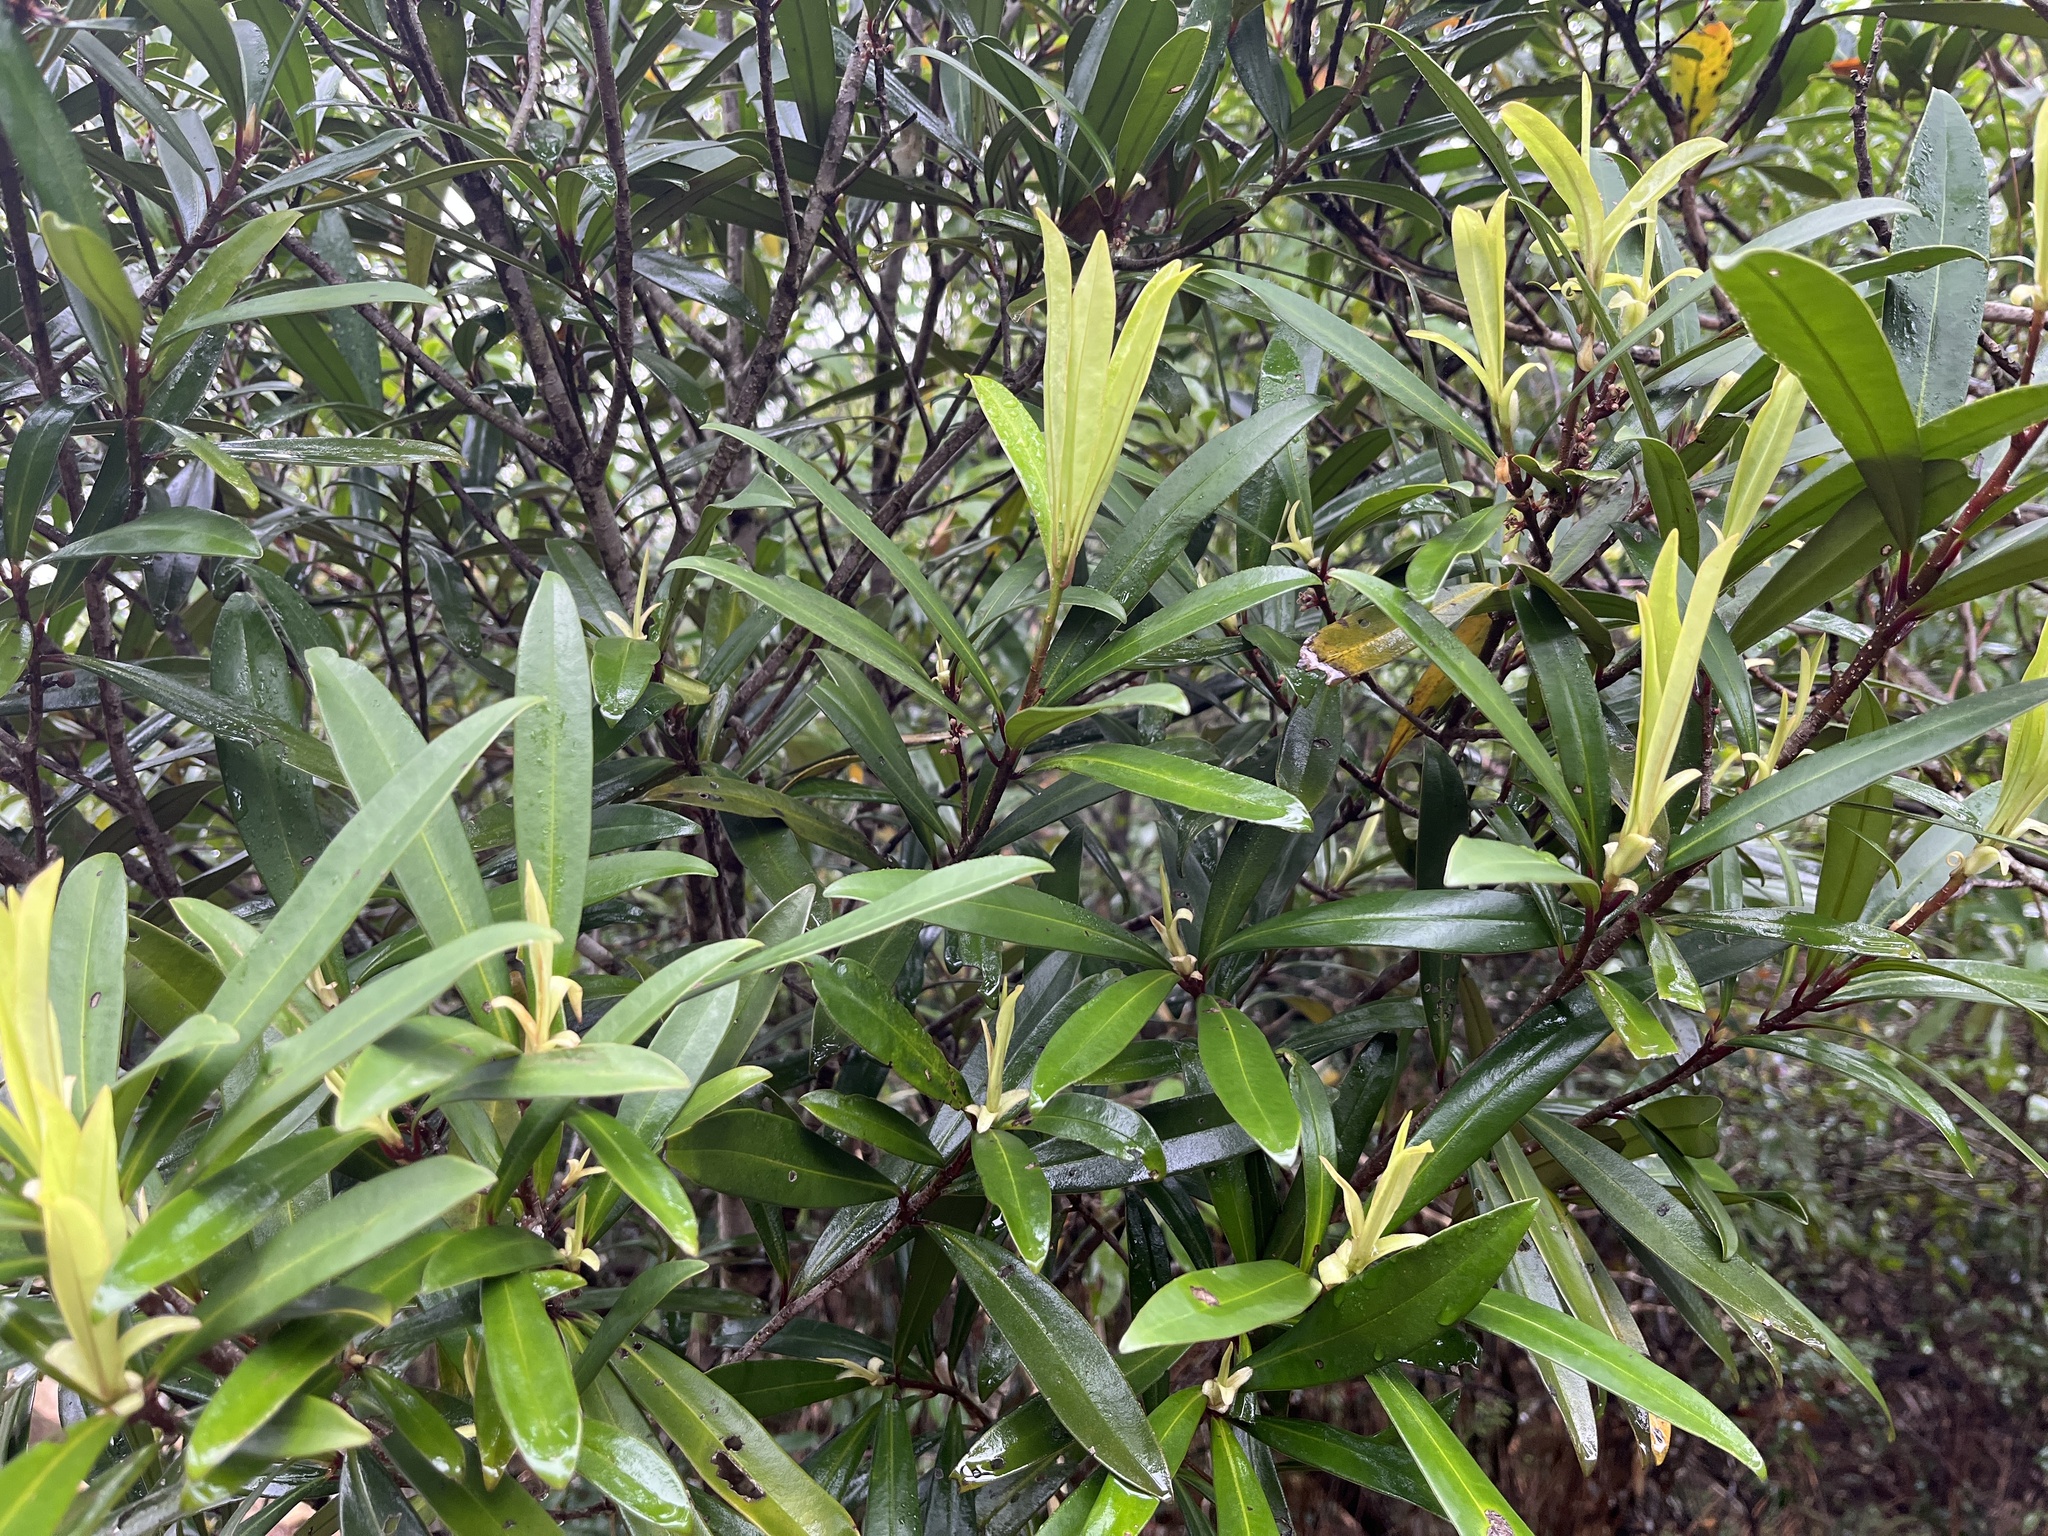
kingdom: Plantae
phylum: Tracheophyta
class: Magnoliopsida
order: Ericales
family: Primulaceae
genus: Myrsine
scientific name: Myrsine seguinii
